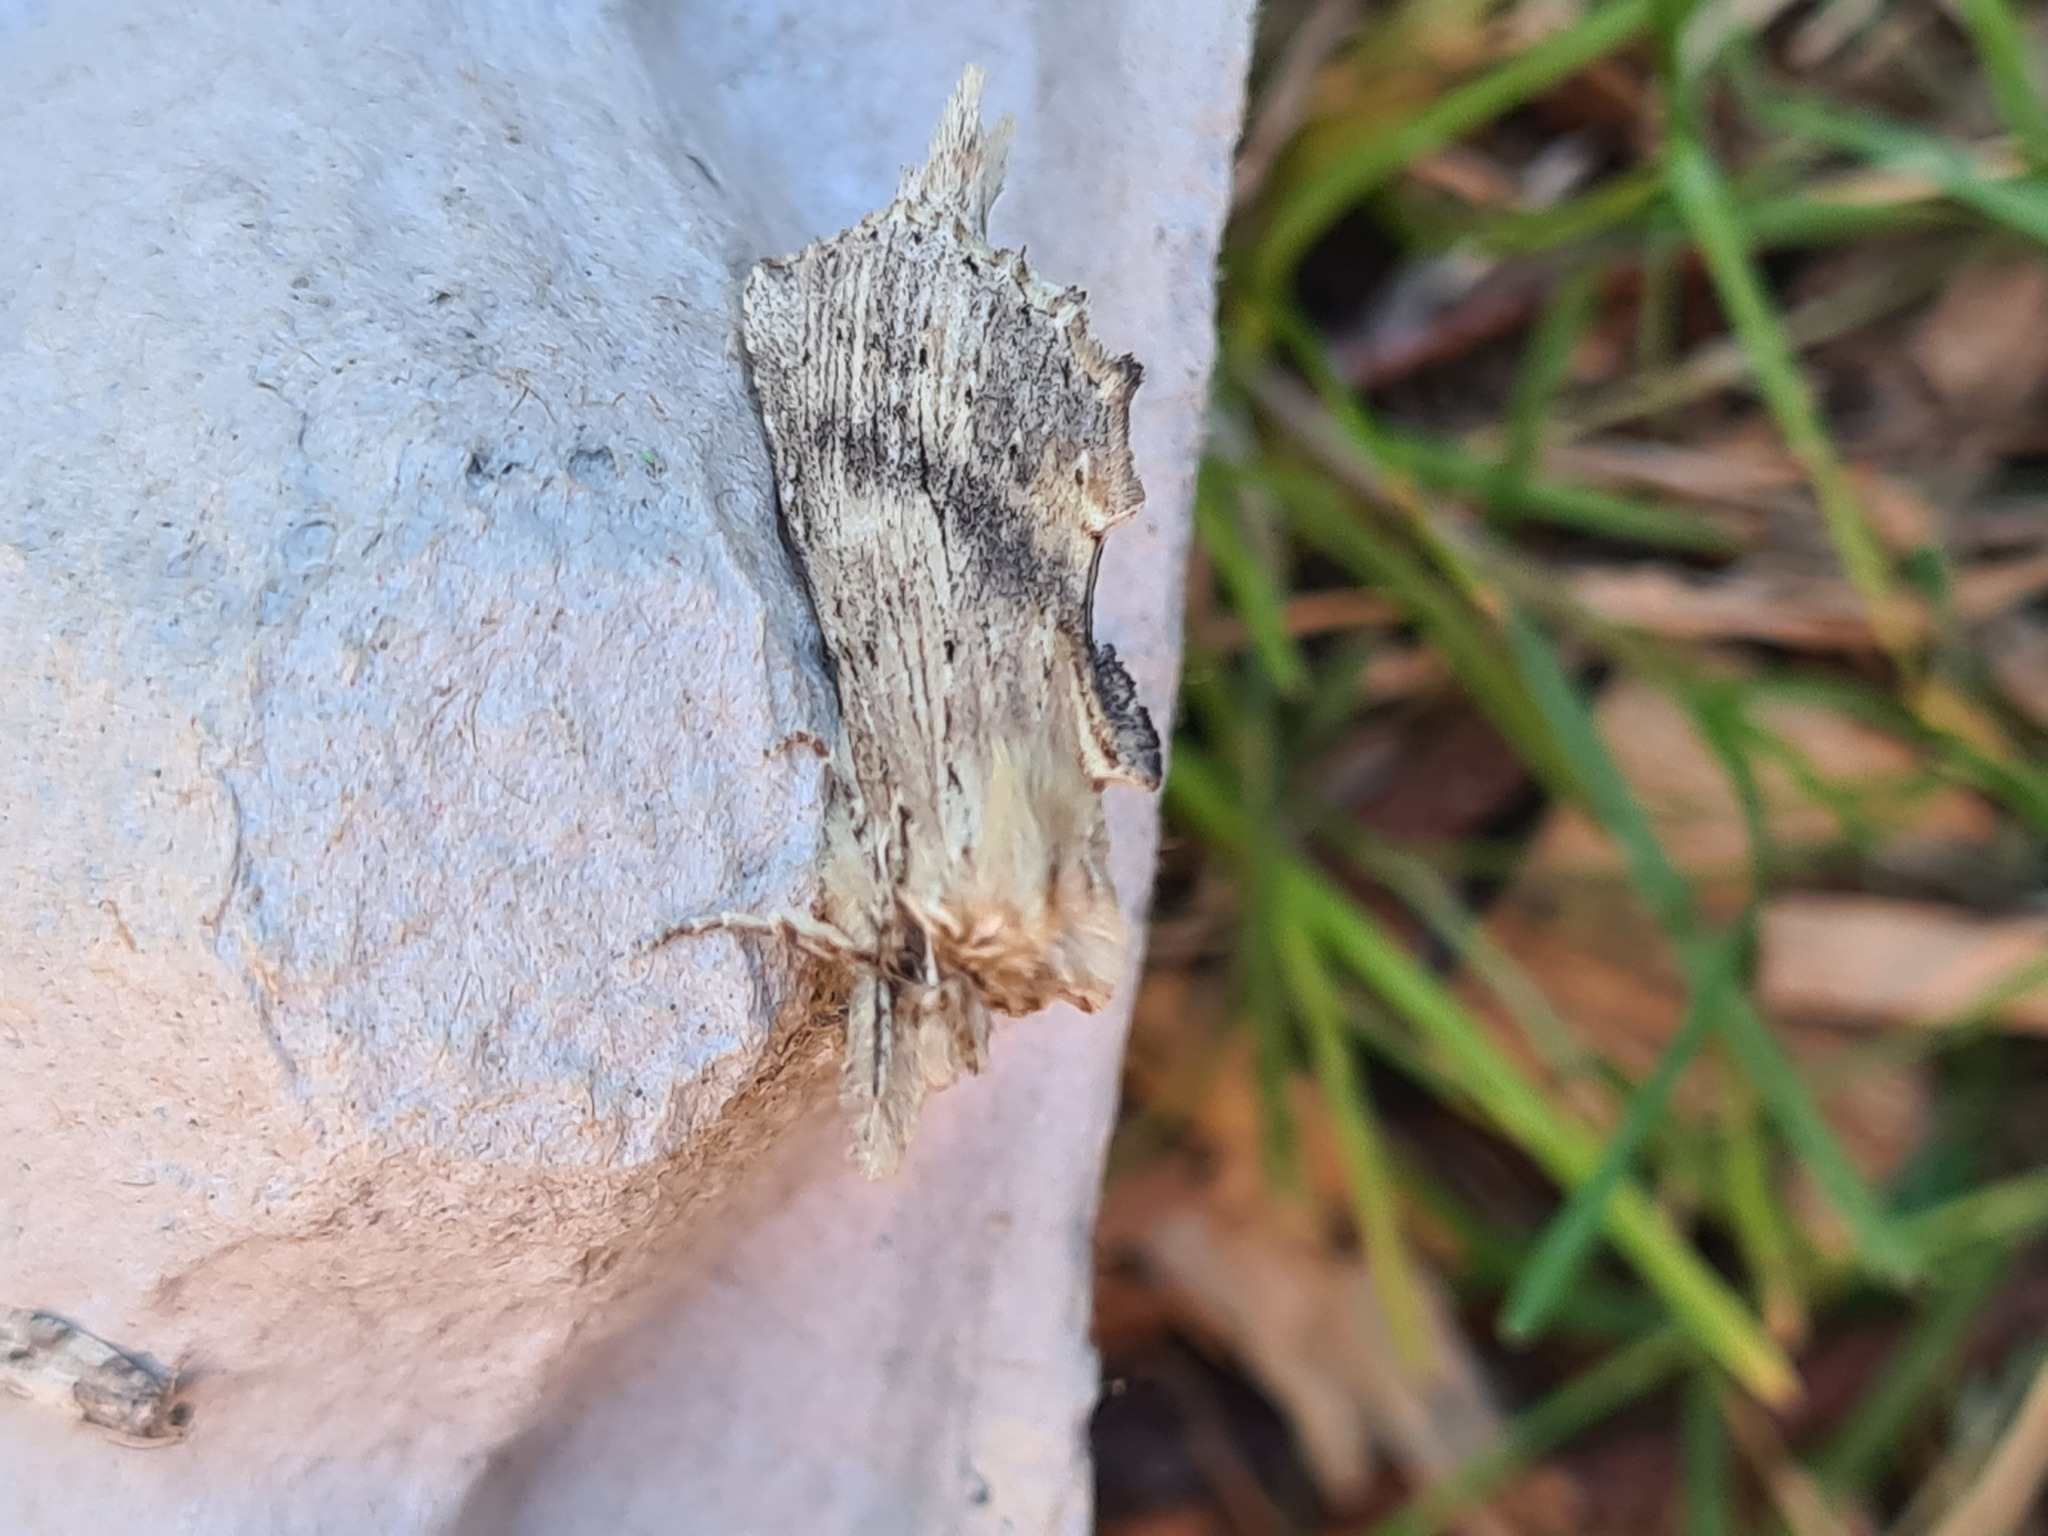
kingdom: Animalia
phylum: Arthropoda
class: Insecta
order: Lepidoptera
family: Notodontidae
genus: Pterostoma
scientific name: Pterostoma palpina
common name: Pale prominent
